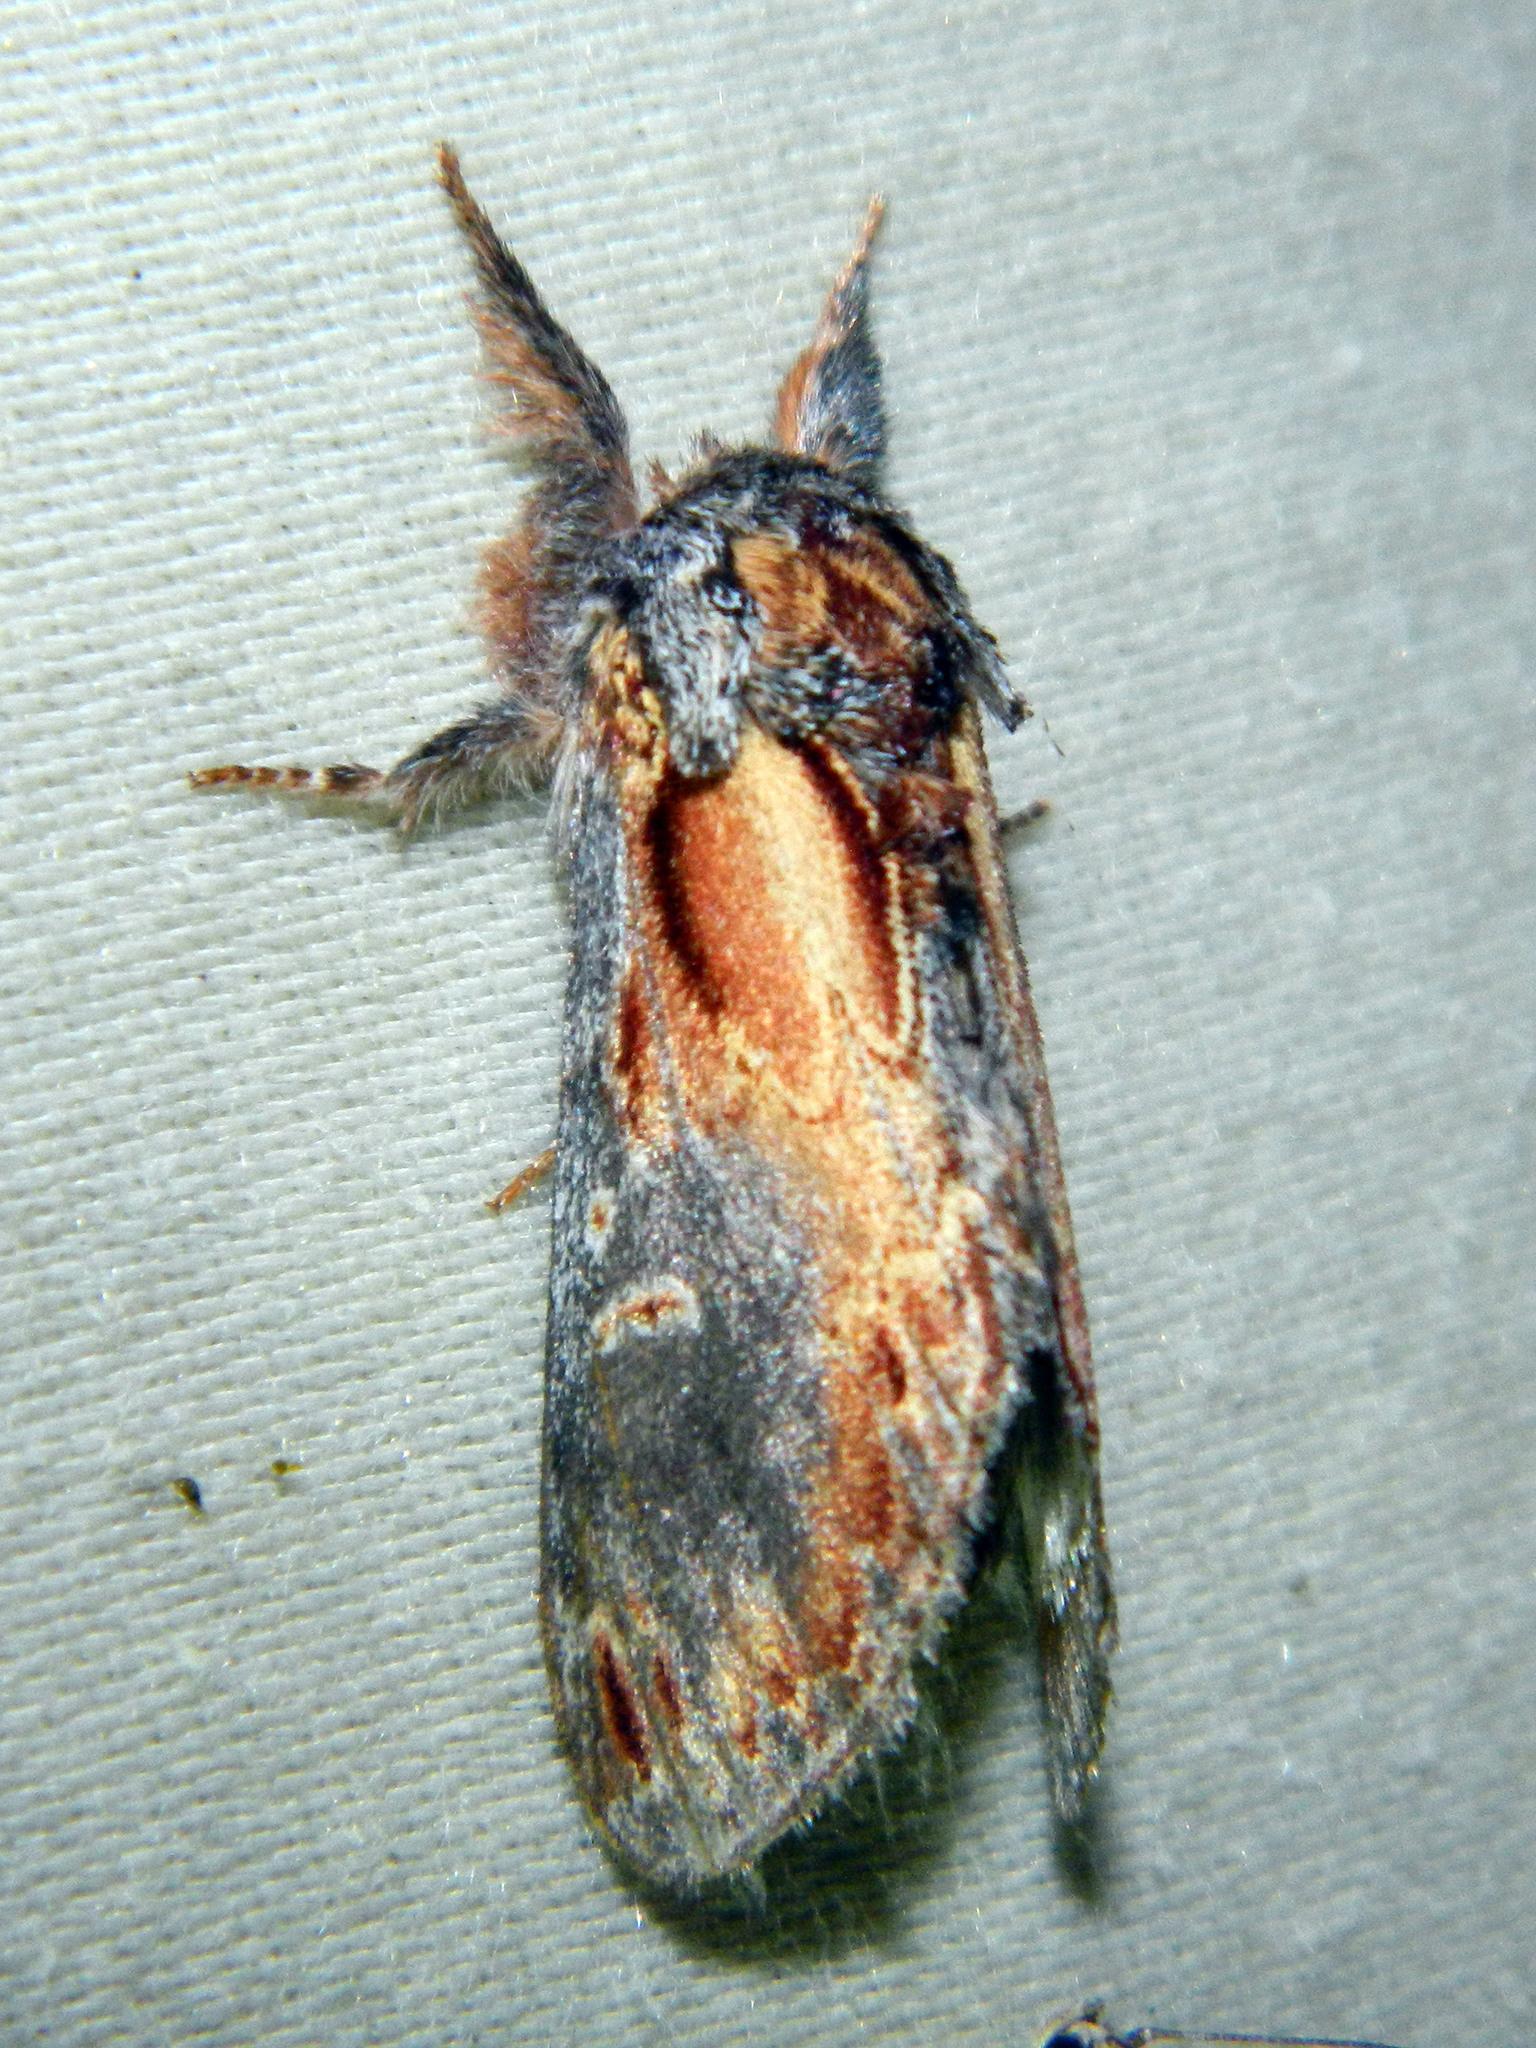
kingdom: Animalia
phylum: Arthropoda
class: Insecta
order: Lepidoptera
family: Notodontidae
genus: Notodonta
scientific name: Notodonta scitipennis
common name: Finned-willow prominent moth
